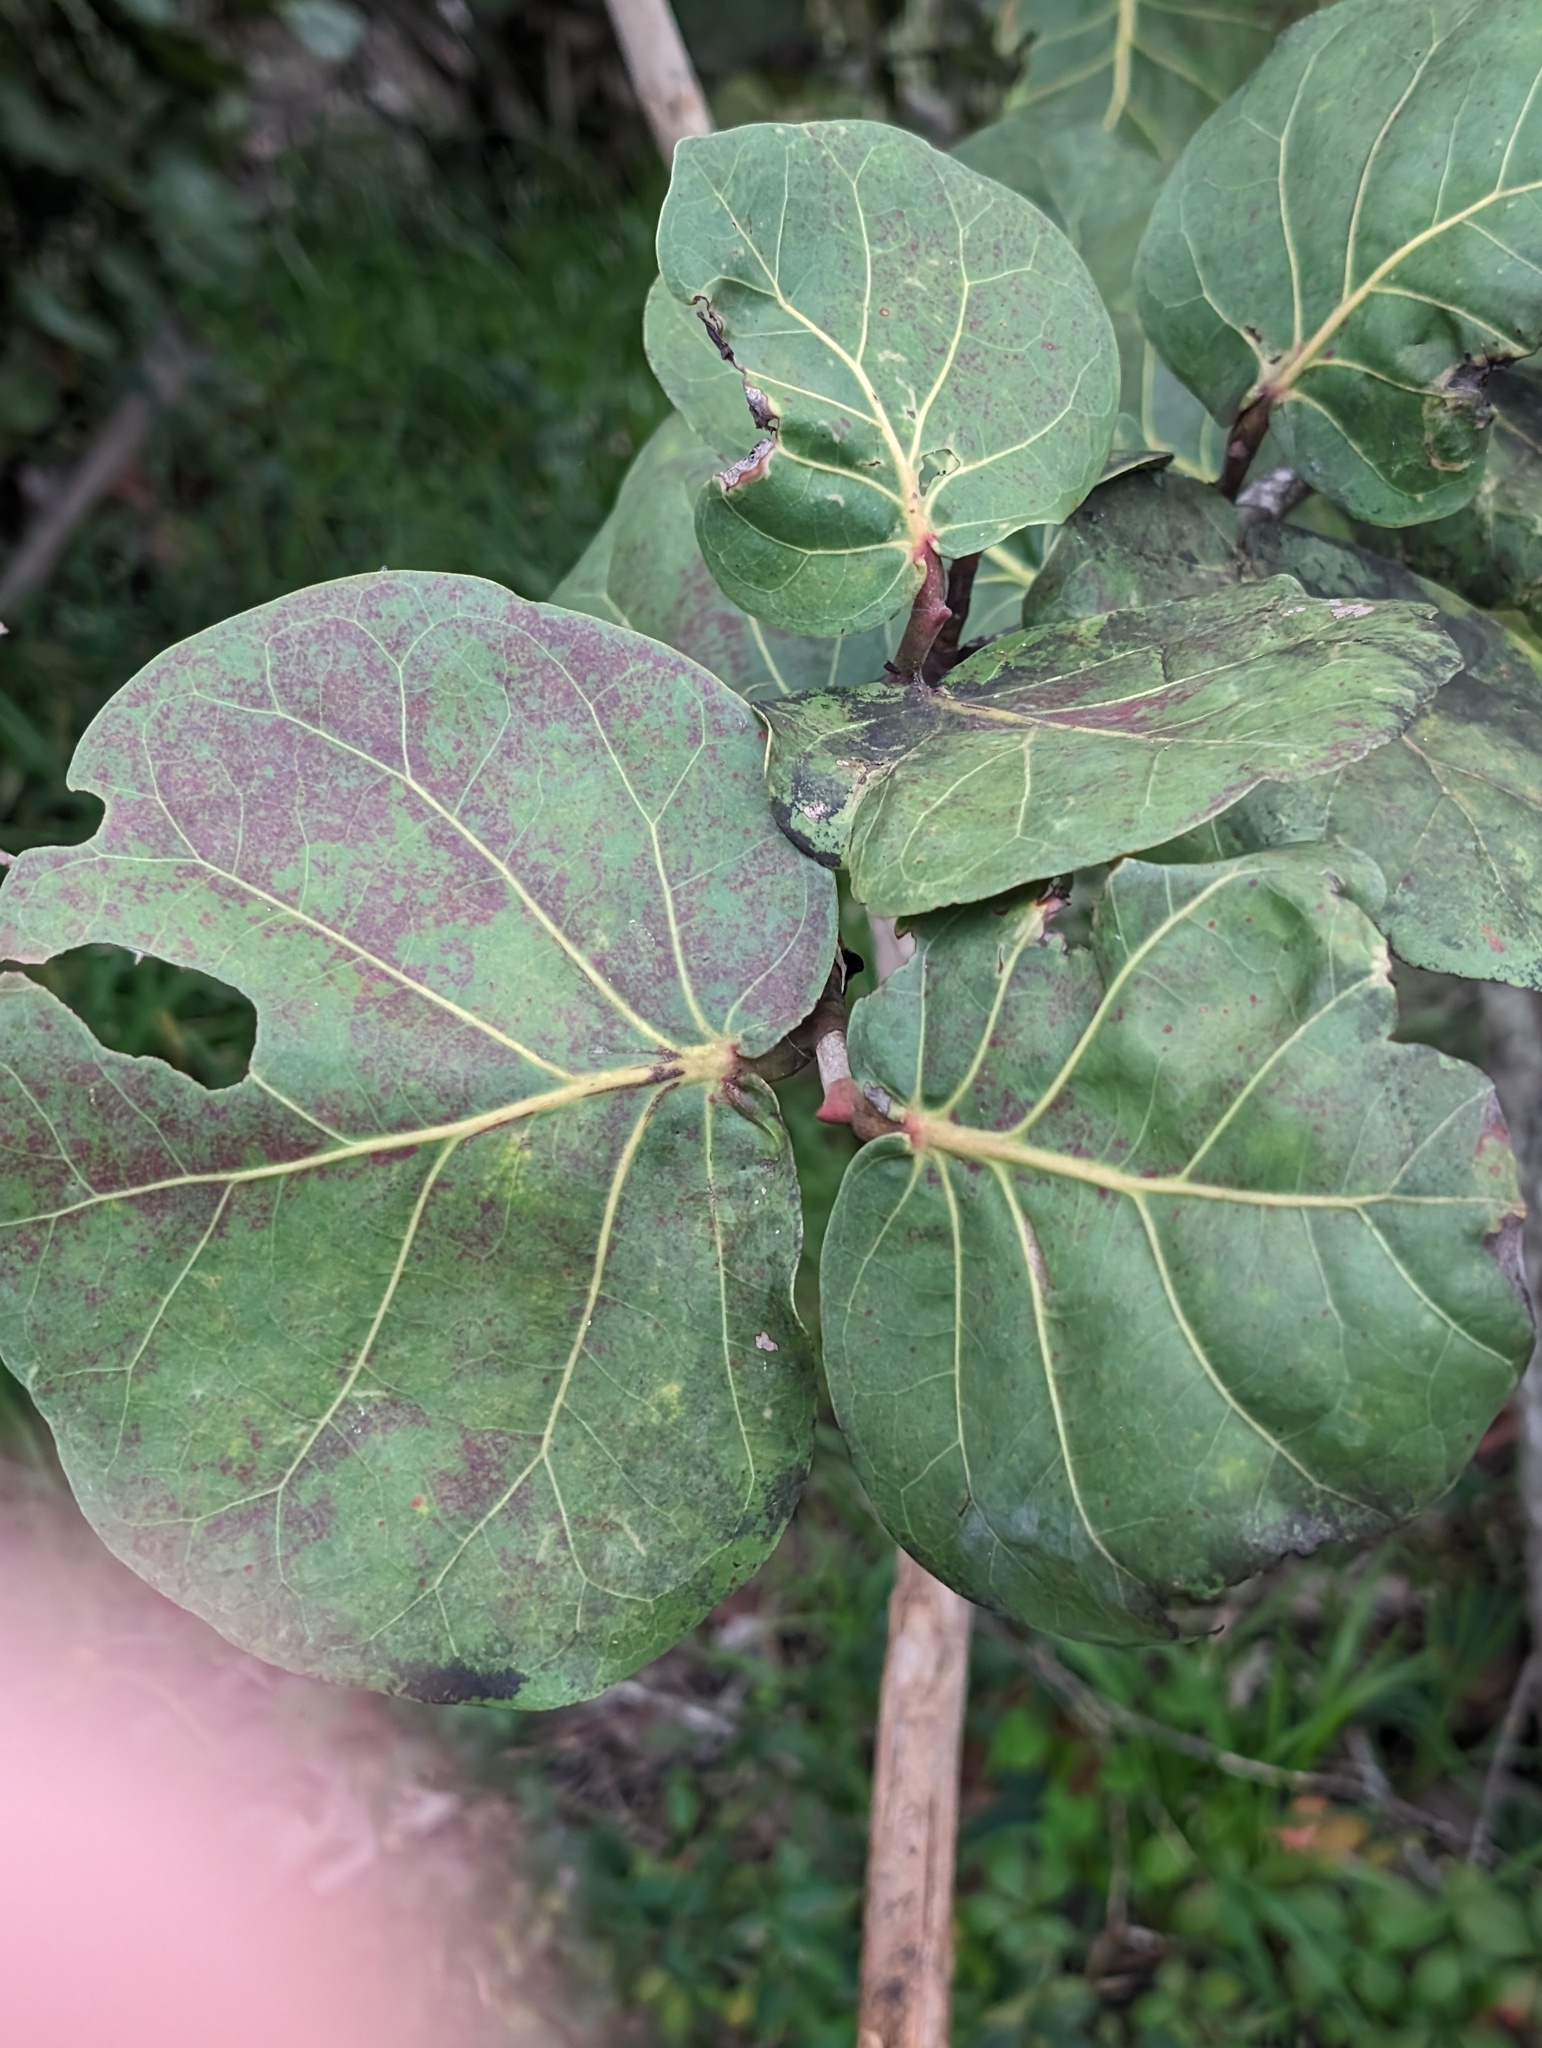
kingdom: Plantae
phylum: Tracheophyta
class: Magnoliopsida
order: Caryophyllales
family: Polygonaceae
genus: Coccoloba
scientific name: Coccoloba uvifera
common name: Seagrape
